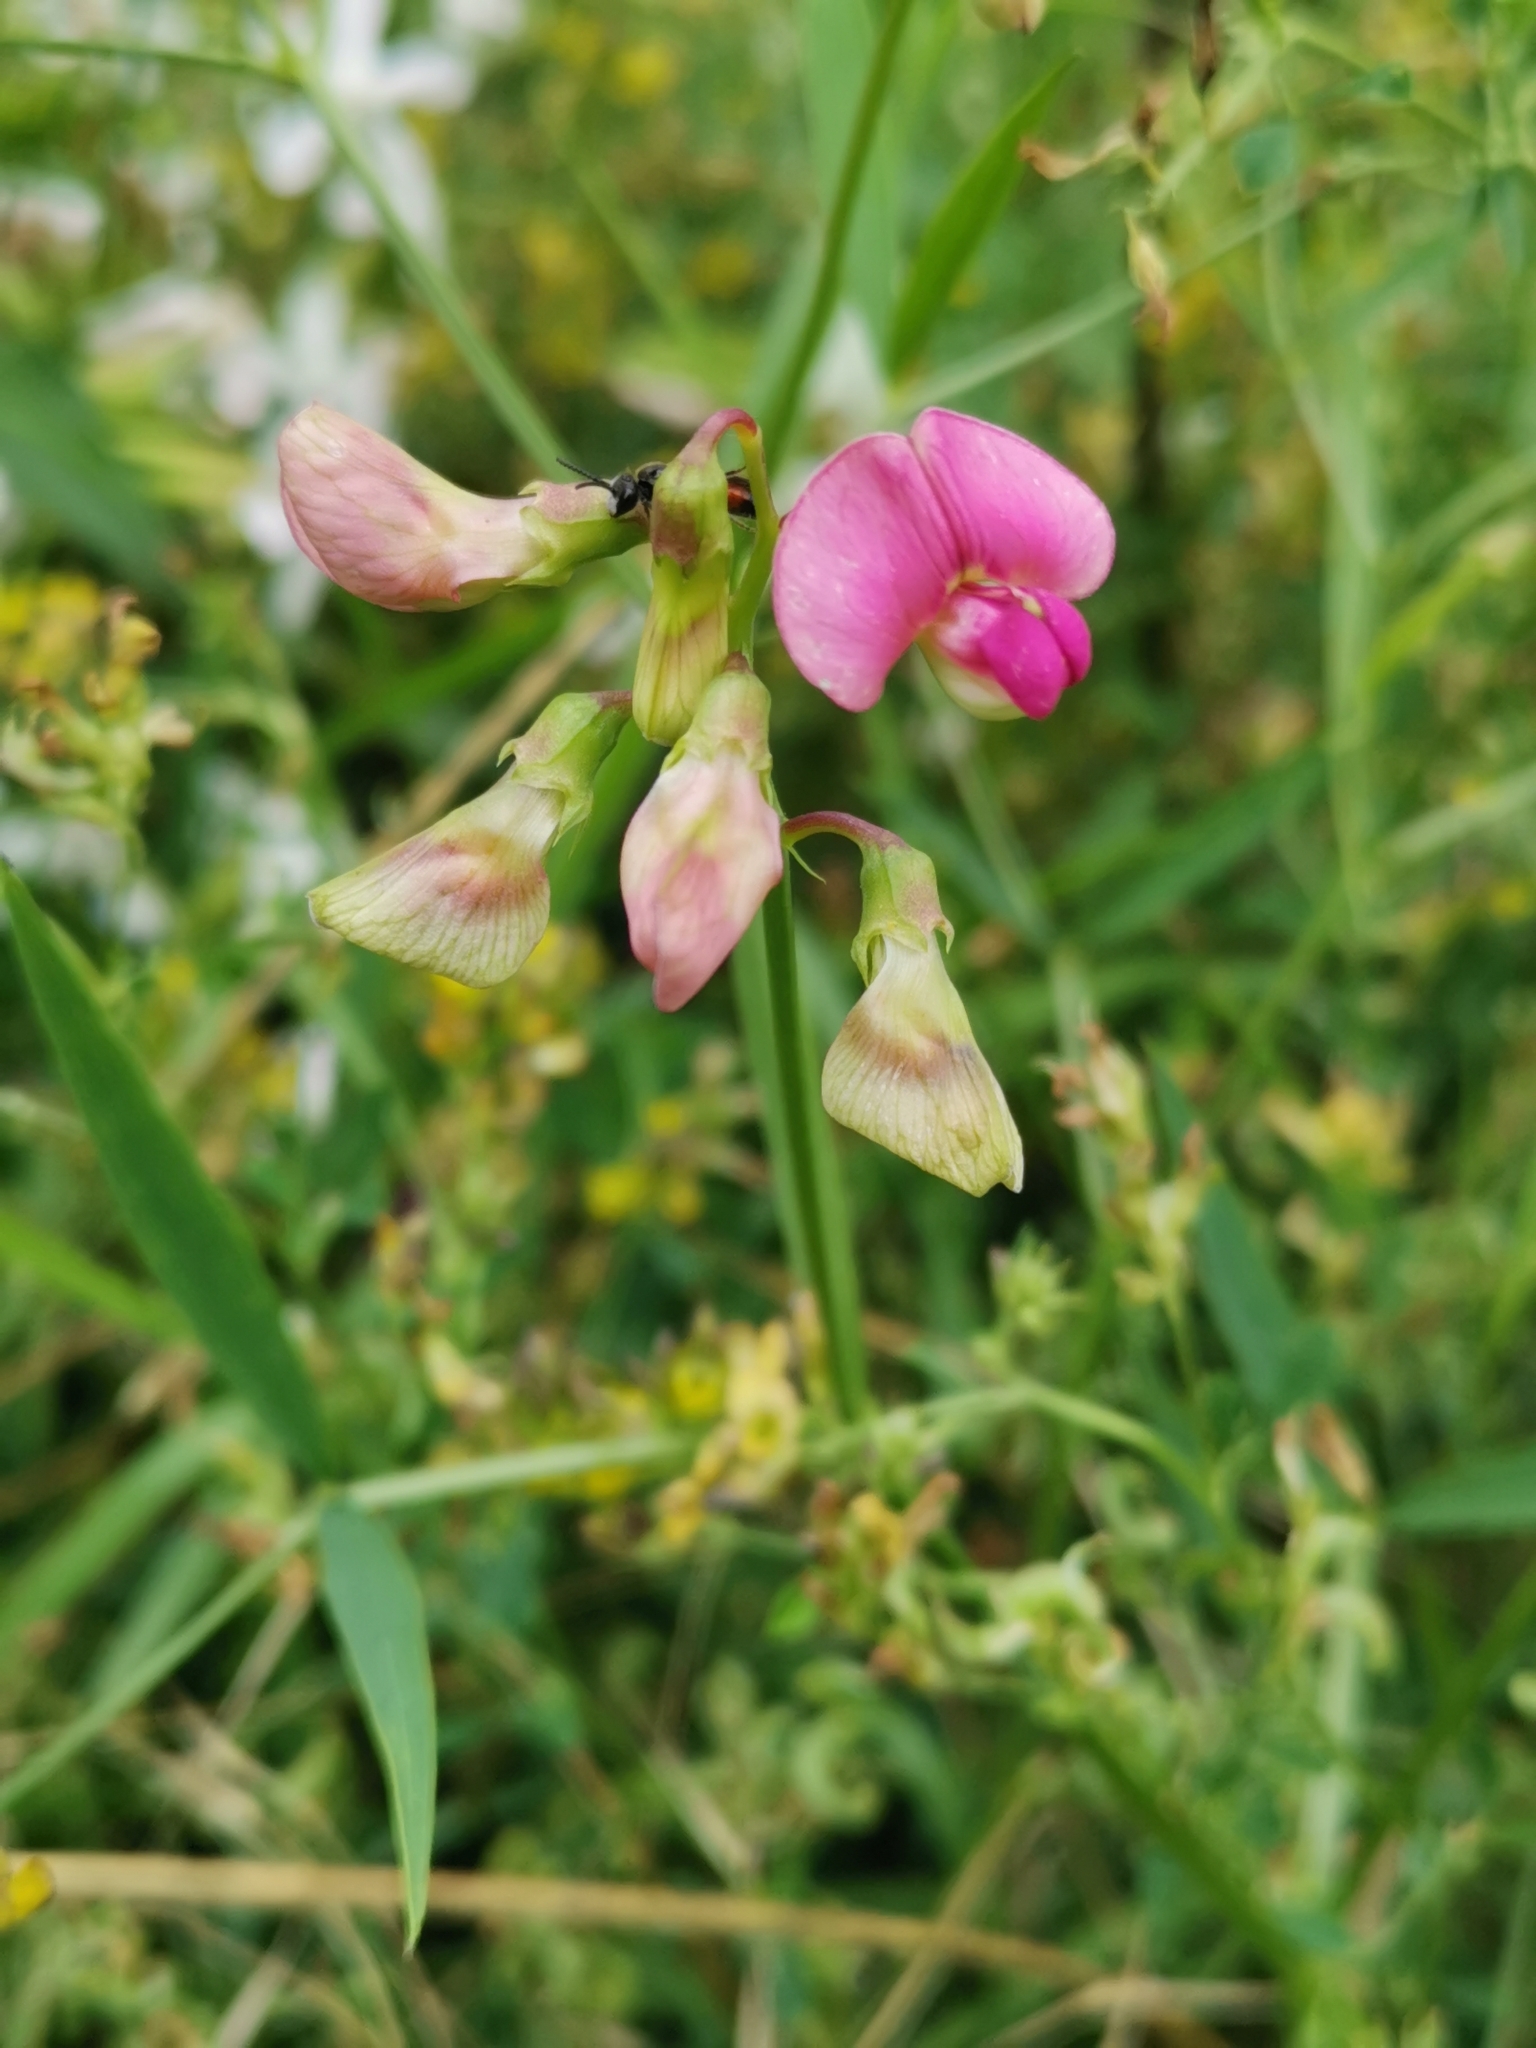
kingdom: Plantae
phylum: Tracheophyta
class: Magnoliopsida
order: Fabales
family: Fabaceae
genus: Lathyrus
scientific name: Lathyrus sylvestris
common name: Flat pea
